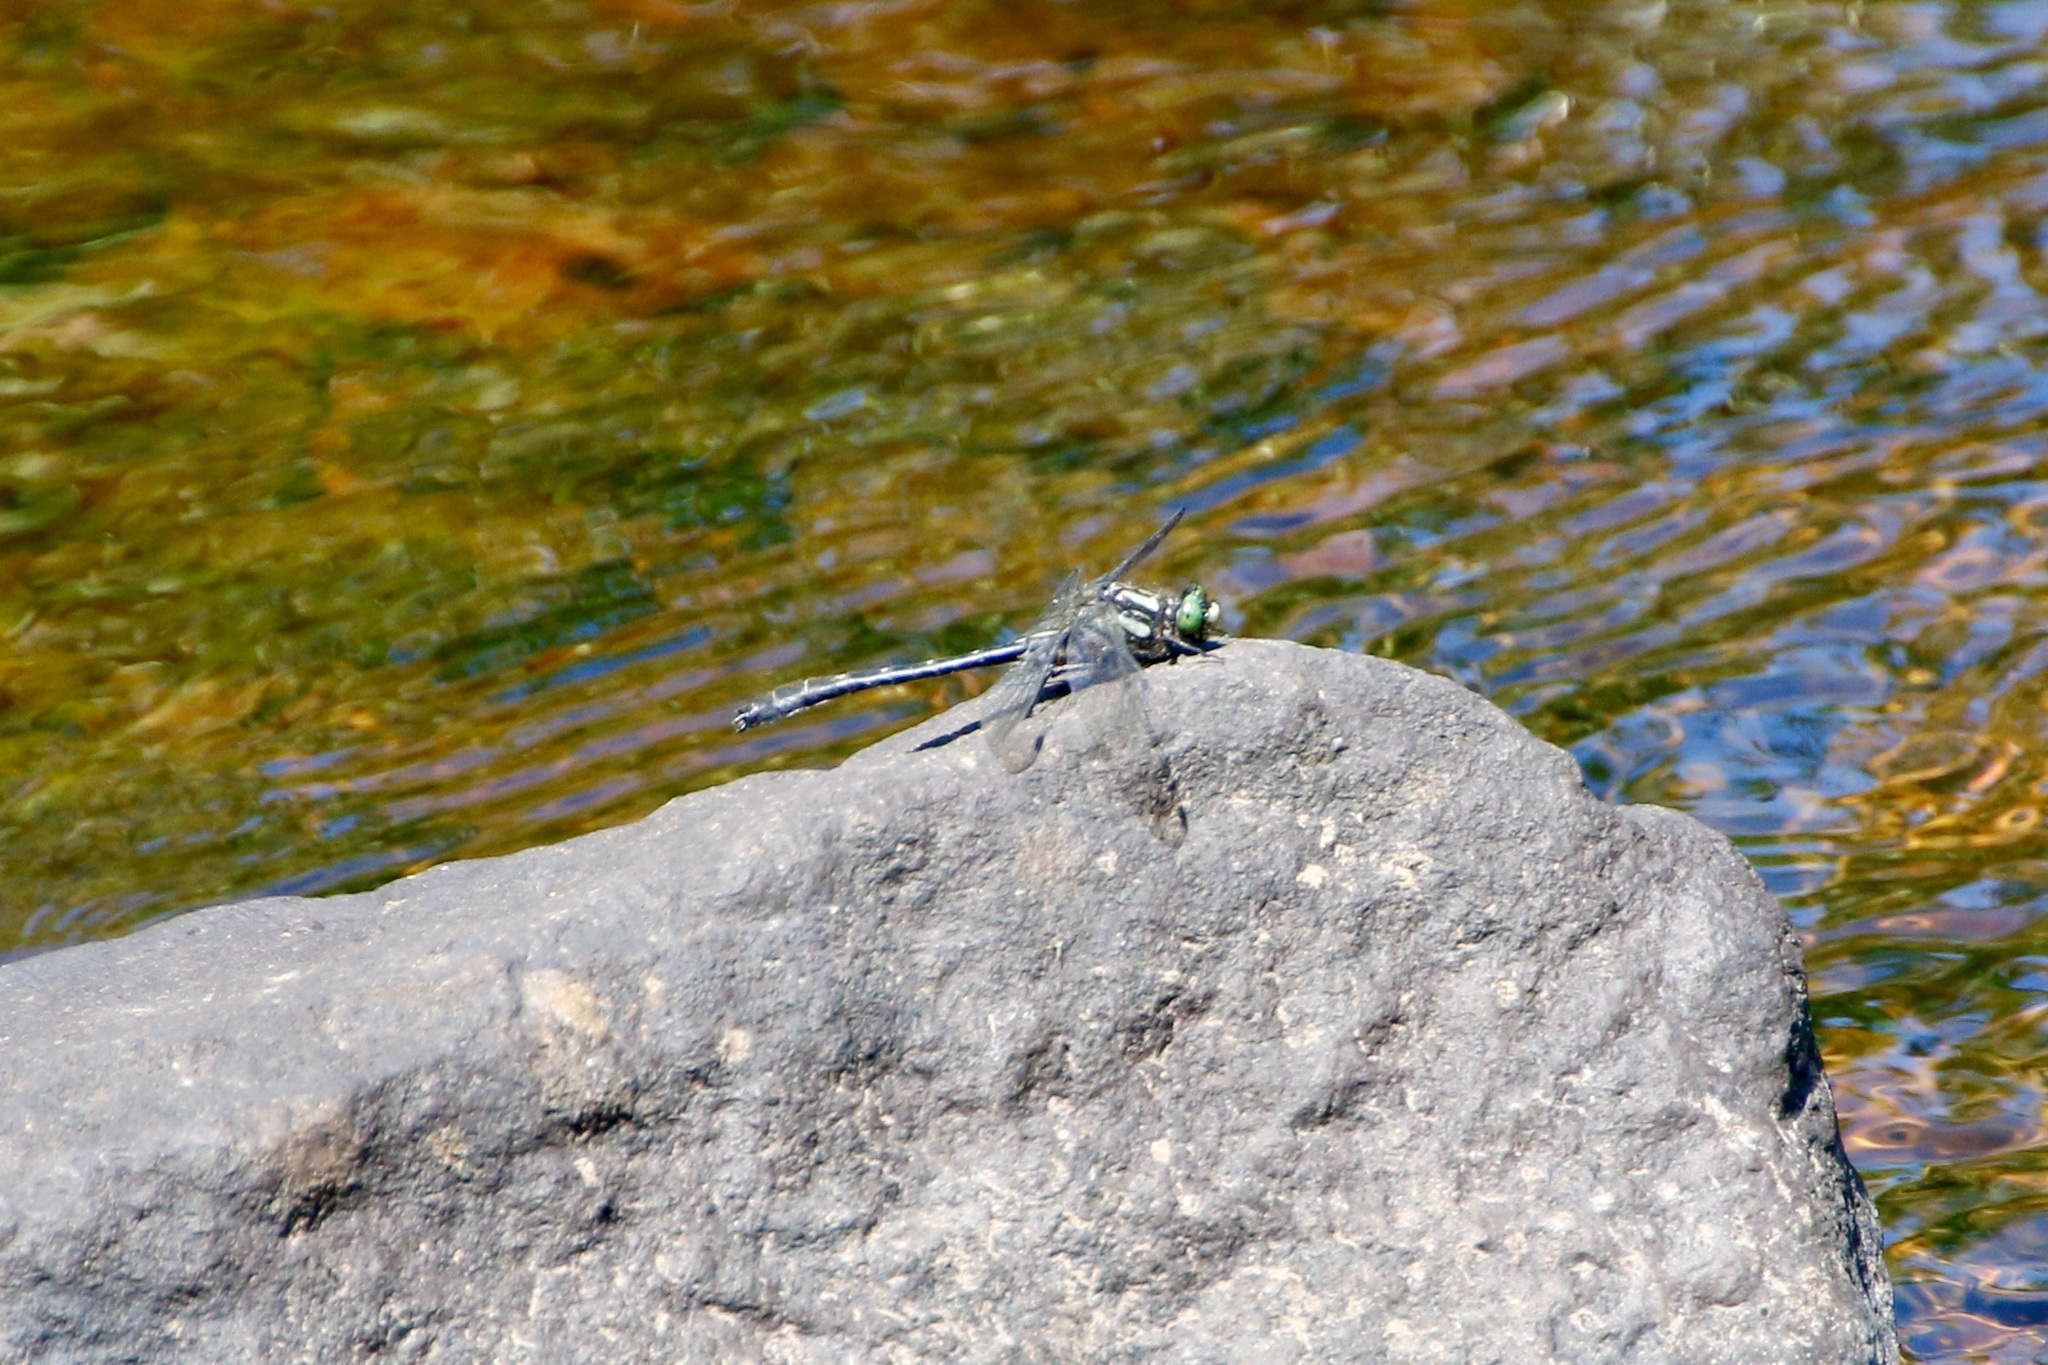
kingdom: Animalia
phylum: Arthropoda
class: Insecta
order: Odonata
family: Gomphidae
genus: Hylogomphus
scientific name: Hylogomphus adelphus
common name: Mustached clubtail
